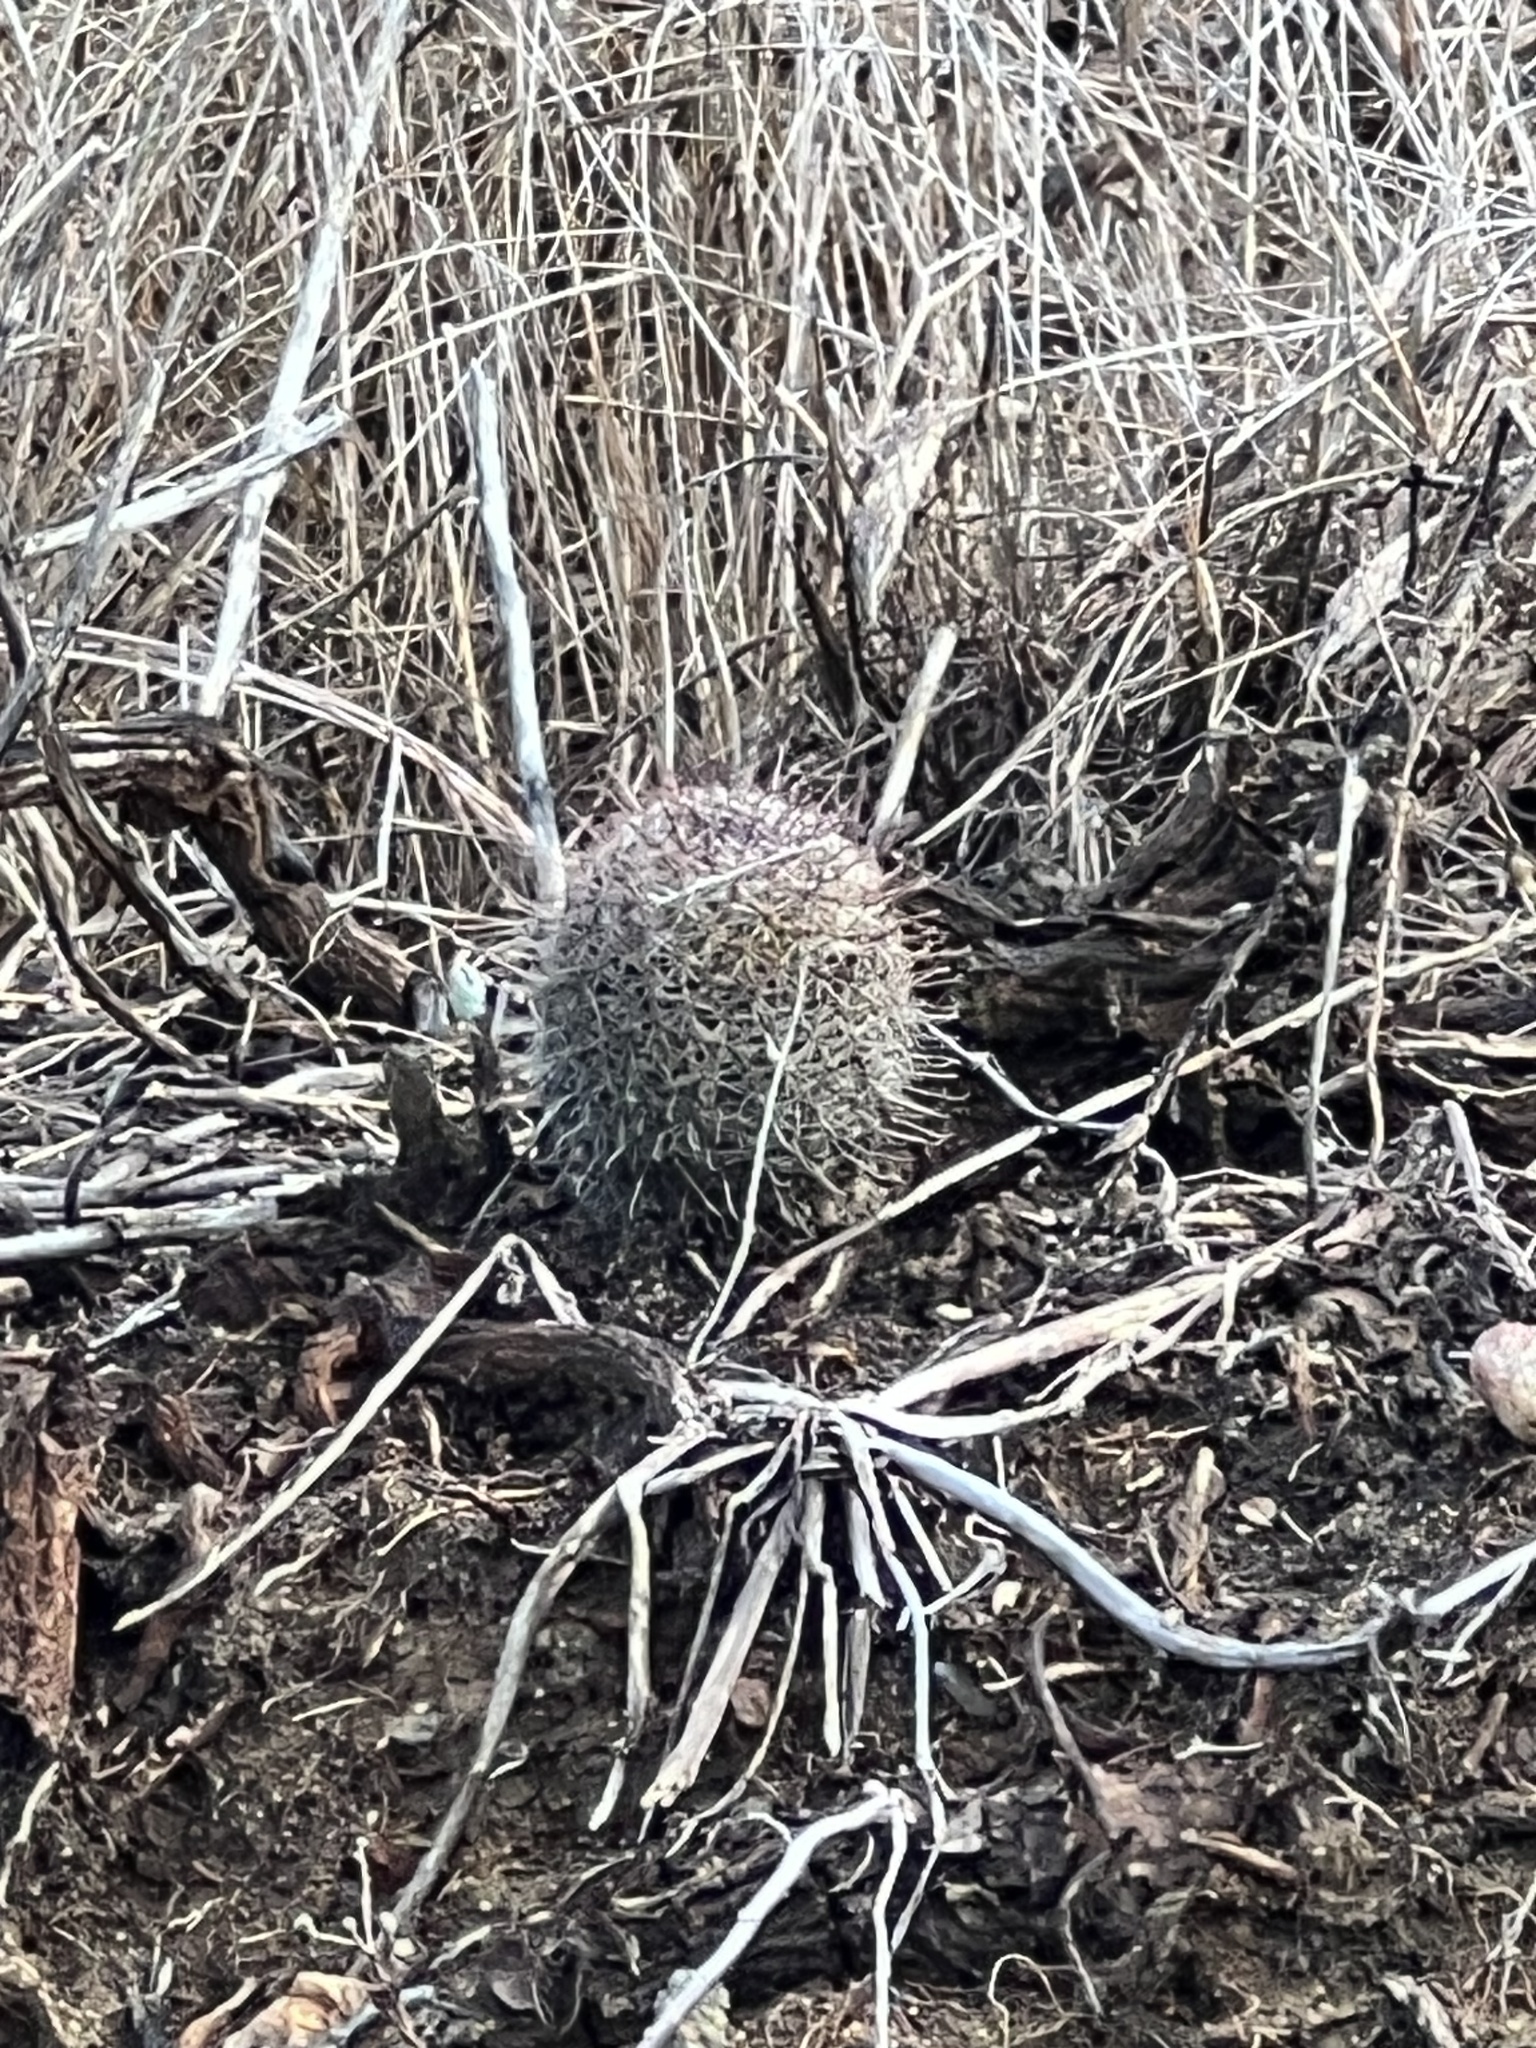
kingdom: Plantae
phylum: Tracheophyta
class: Magnoliopsida
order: Caryophyllales
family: Cactaceae
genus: Cochemiea
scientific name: Cochemiea dioica
